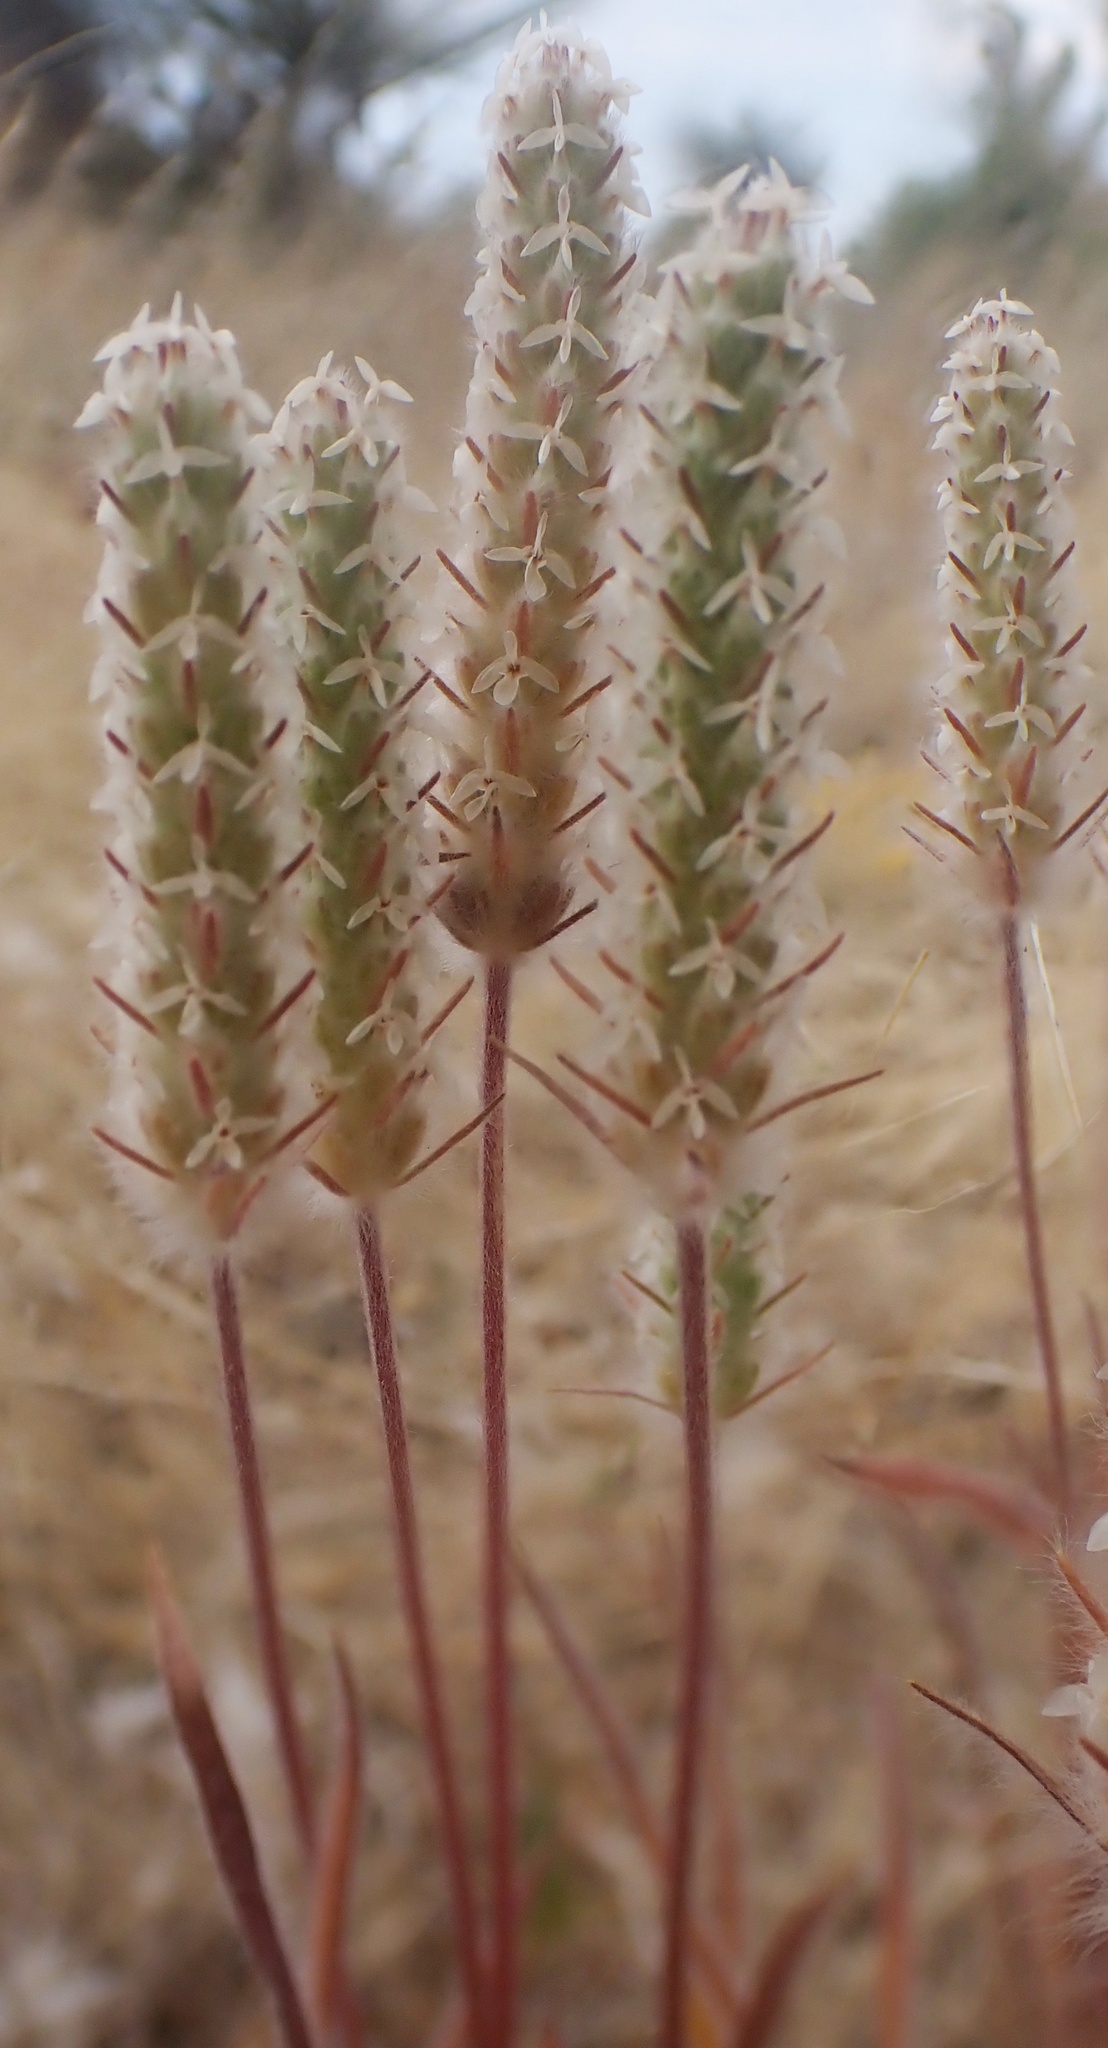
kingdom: Plantae
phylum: Tracheophyta
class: Magnoliopsida
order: Lamiales
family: Plantaginaceae
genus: Plantago
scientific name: Plantago patagonica
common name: Patagonia indian-wheat
